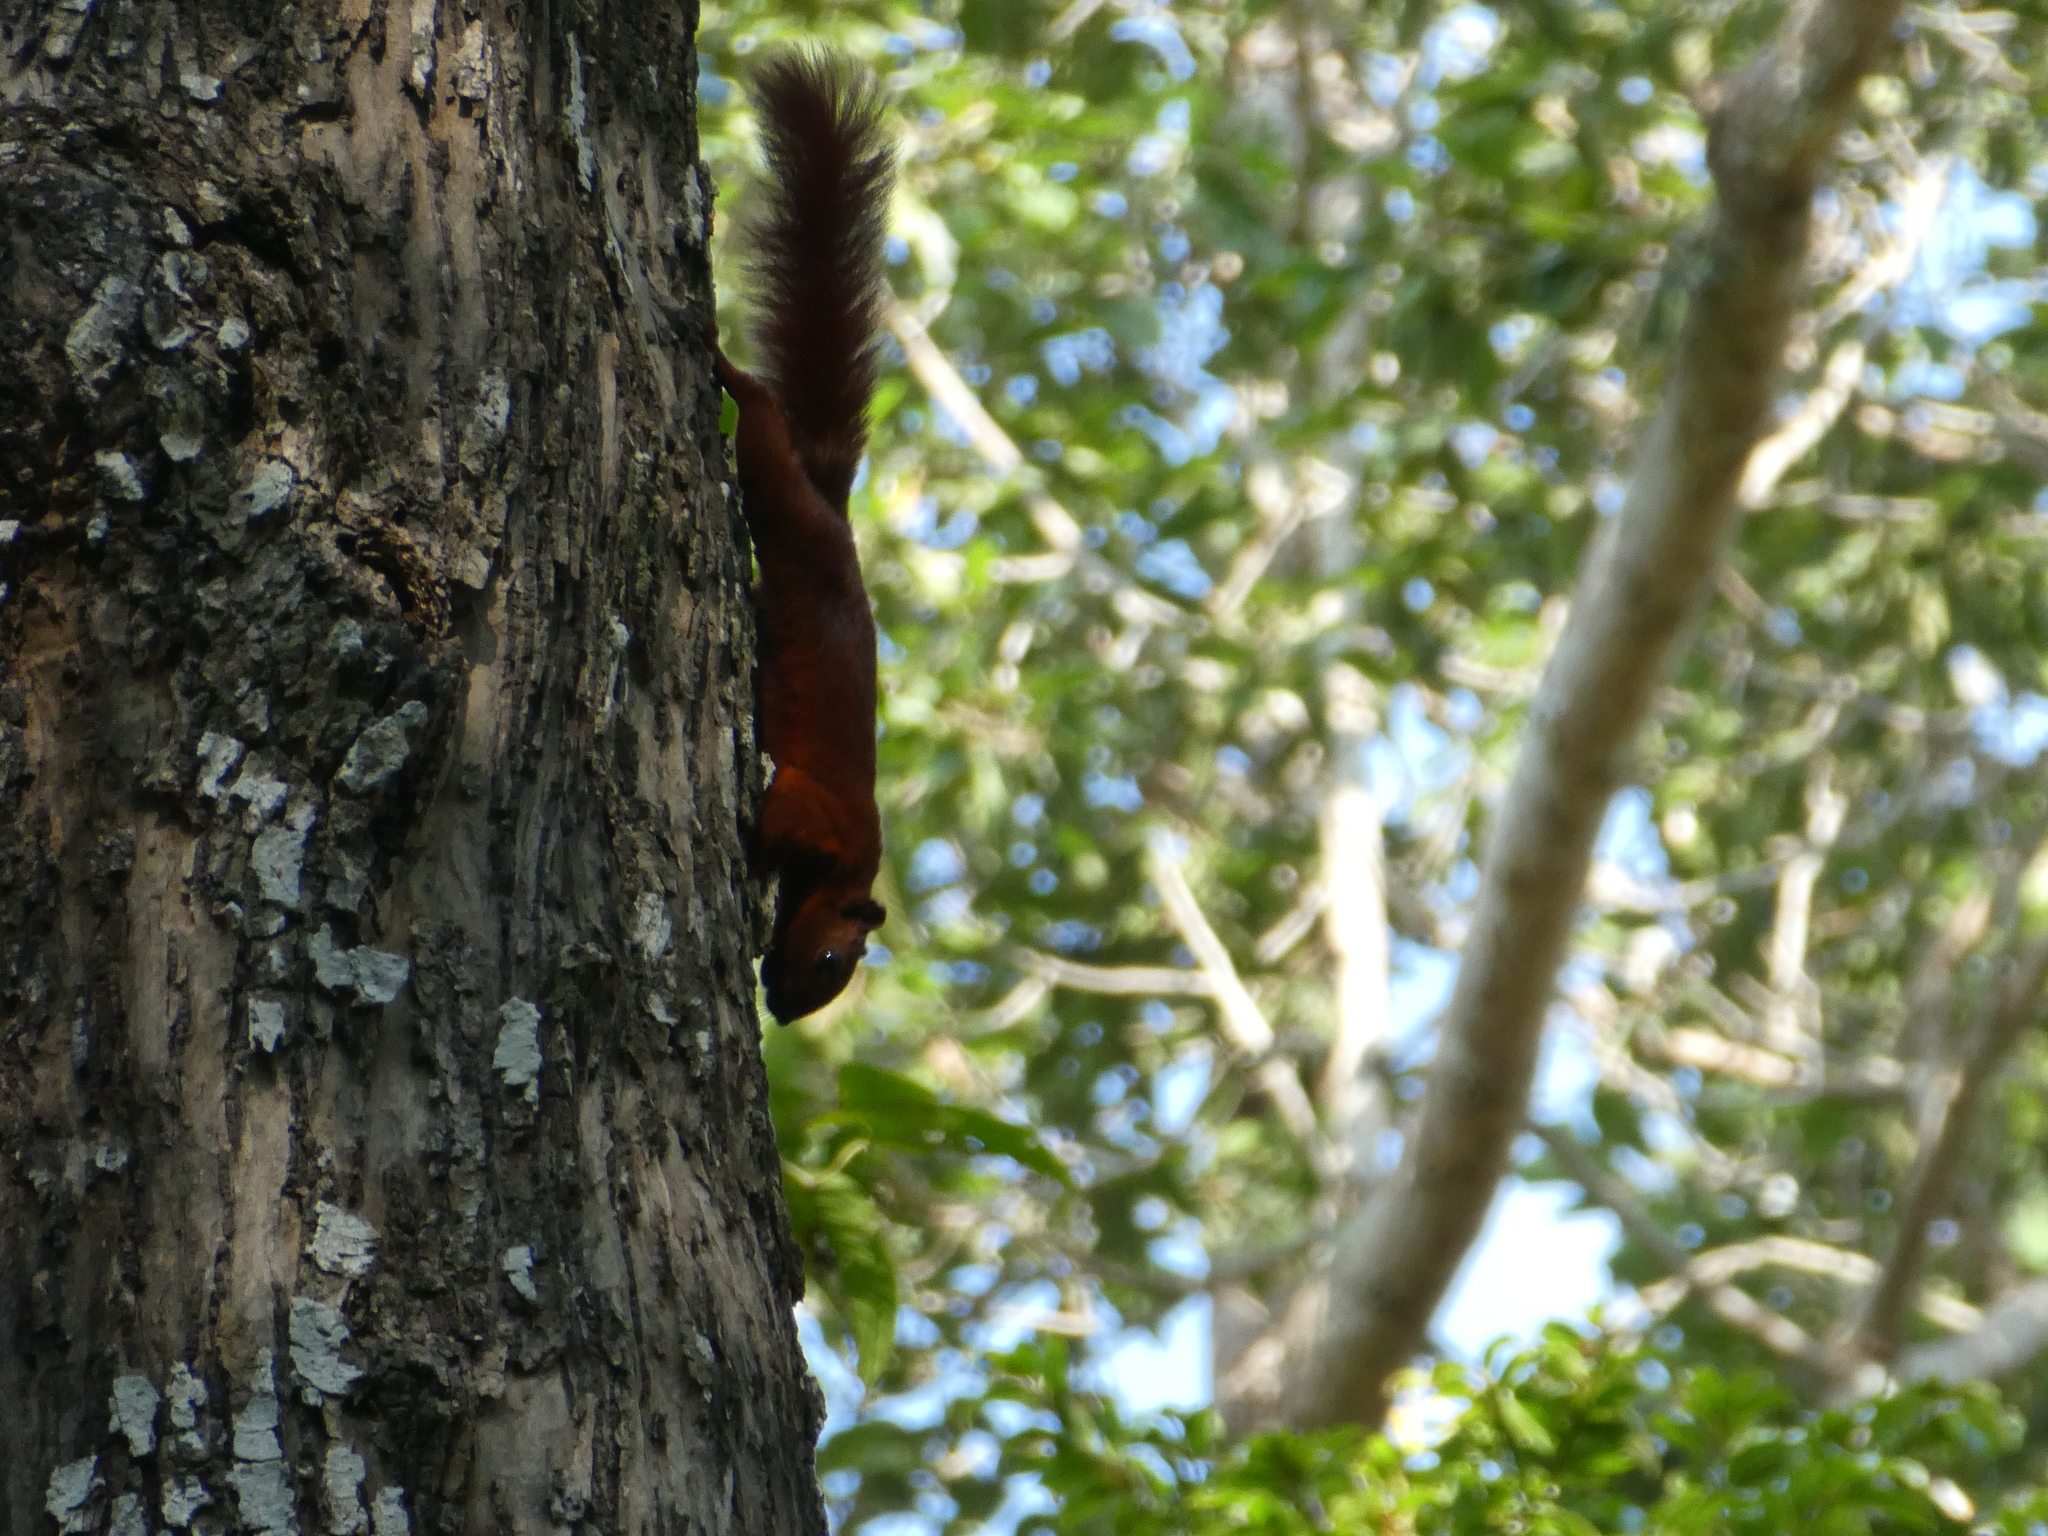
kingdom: Animalia
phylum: Chordata
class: Mammalia
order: Rodentia
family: Sciuridae
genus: Callosciurus
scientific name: Callosciurus finlaysonii
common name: Finlayson's squirrel
